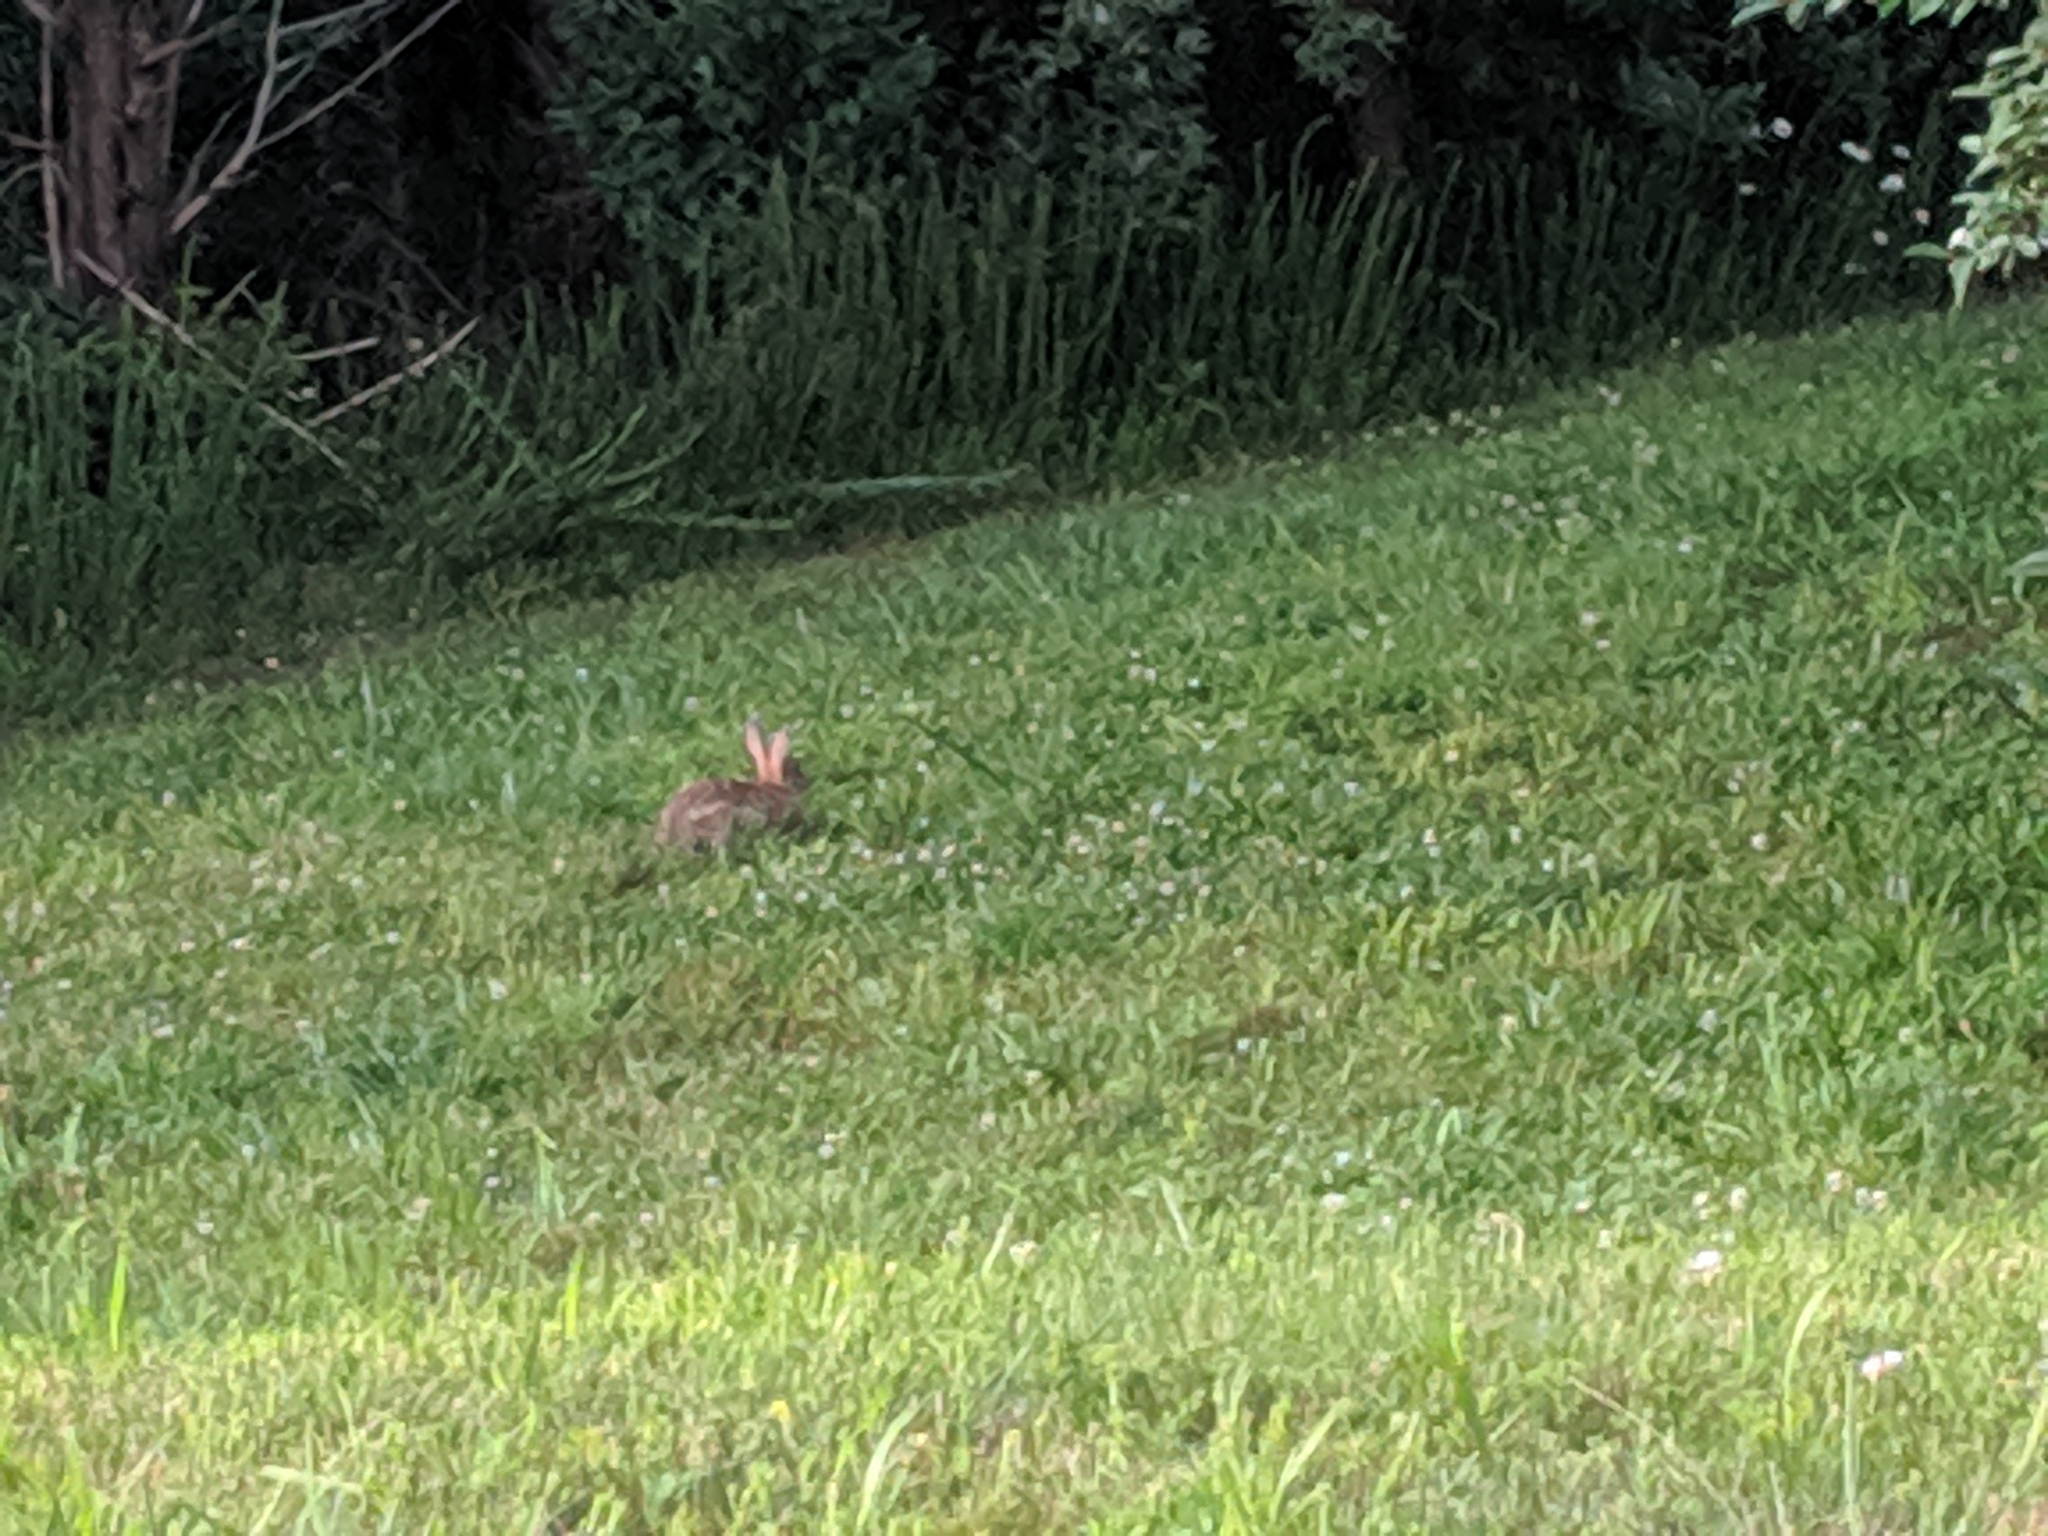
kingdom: Animalia
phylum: Chordata
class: Mammalia
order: Lagomorpha
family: Leporidae
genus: Sylvilagus
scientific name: Sylvilagus floridanus
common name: Eastern cottontail
